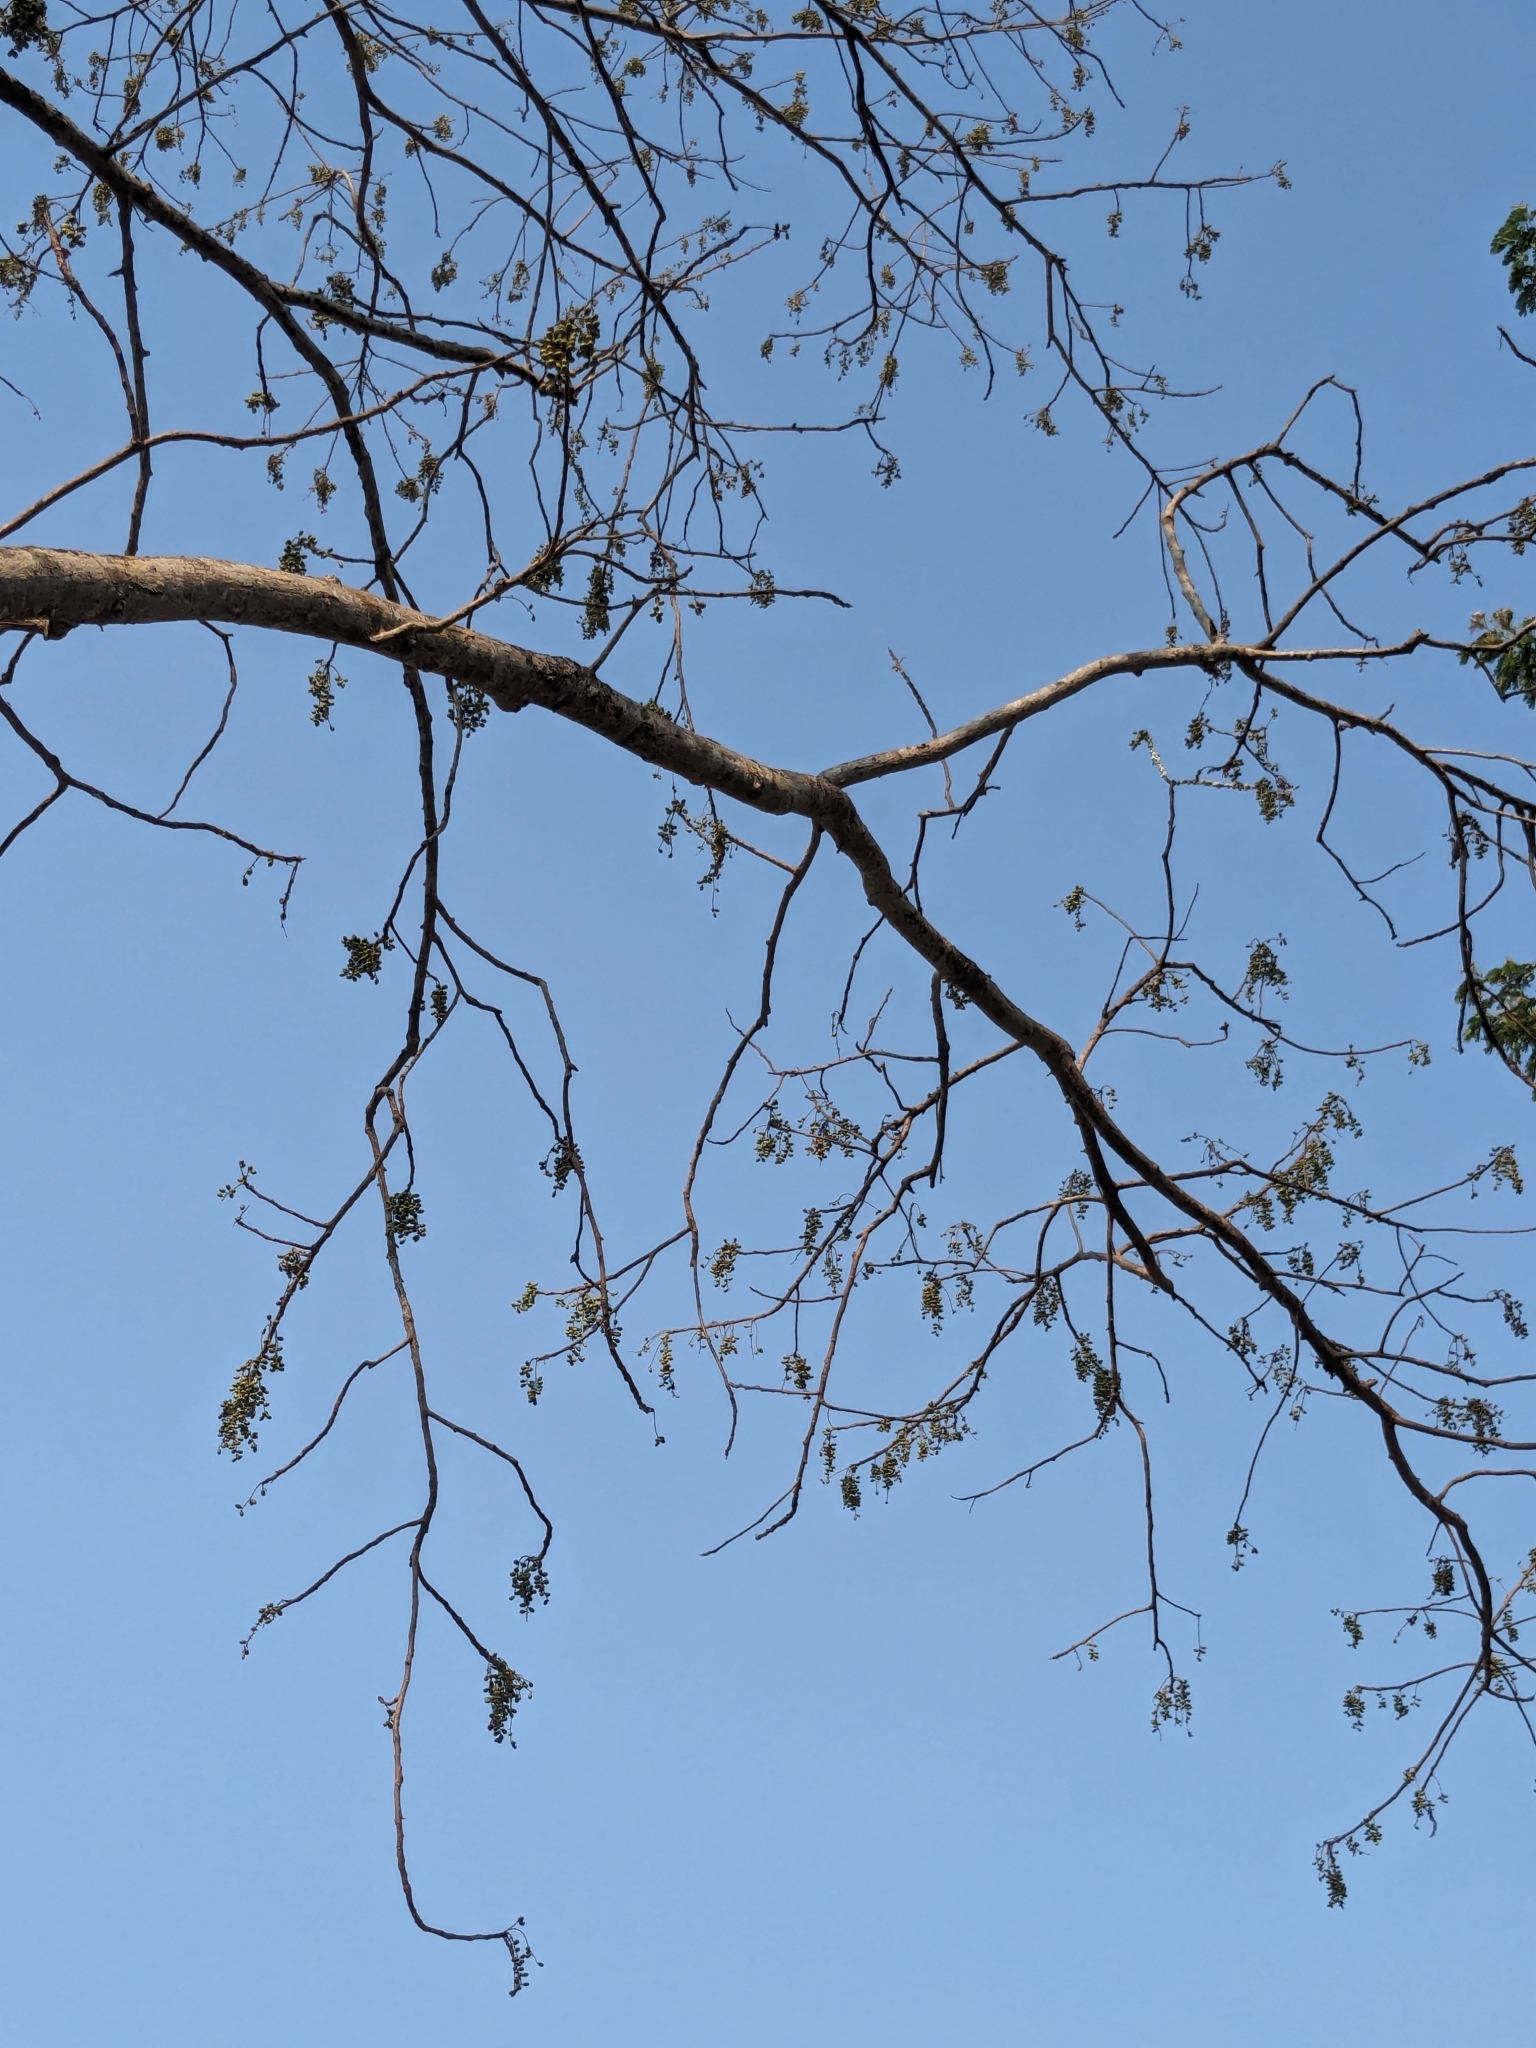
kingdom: Plantae
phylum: Tracheophyta
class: Magnoliopsida
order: Sapindales
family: Anacardiaceae
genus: Lannea
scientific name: Lannea coromandelica
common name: Indian ash tree
